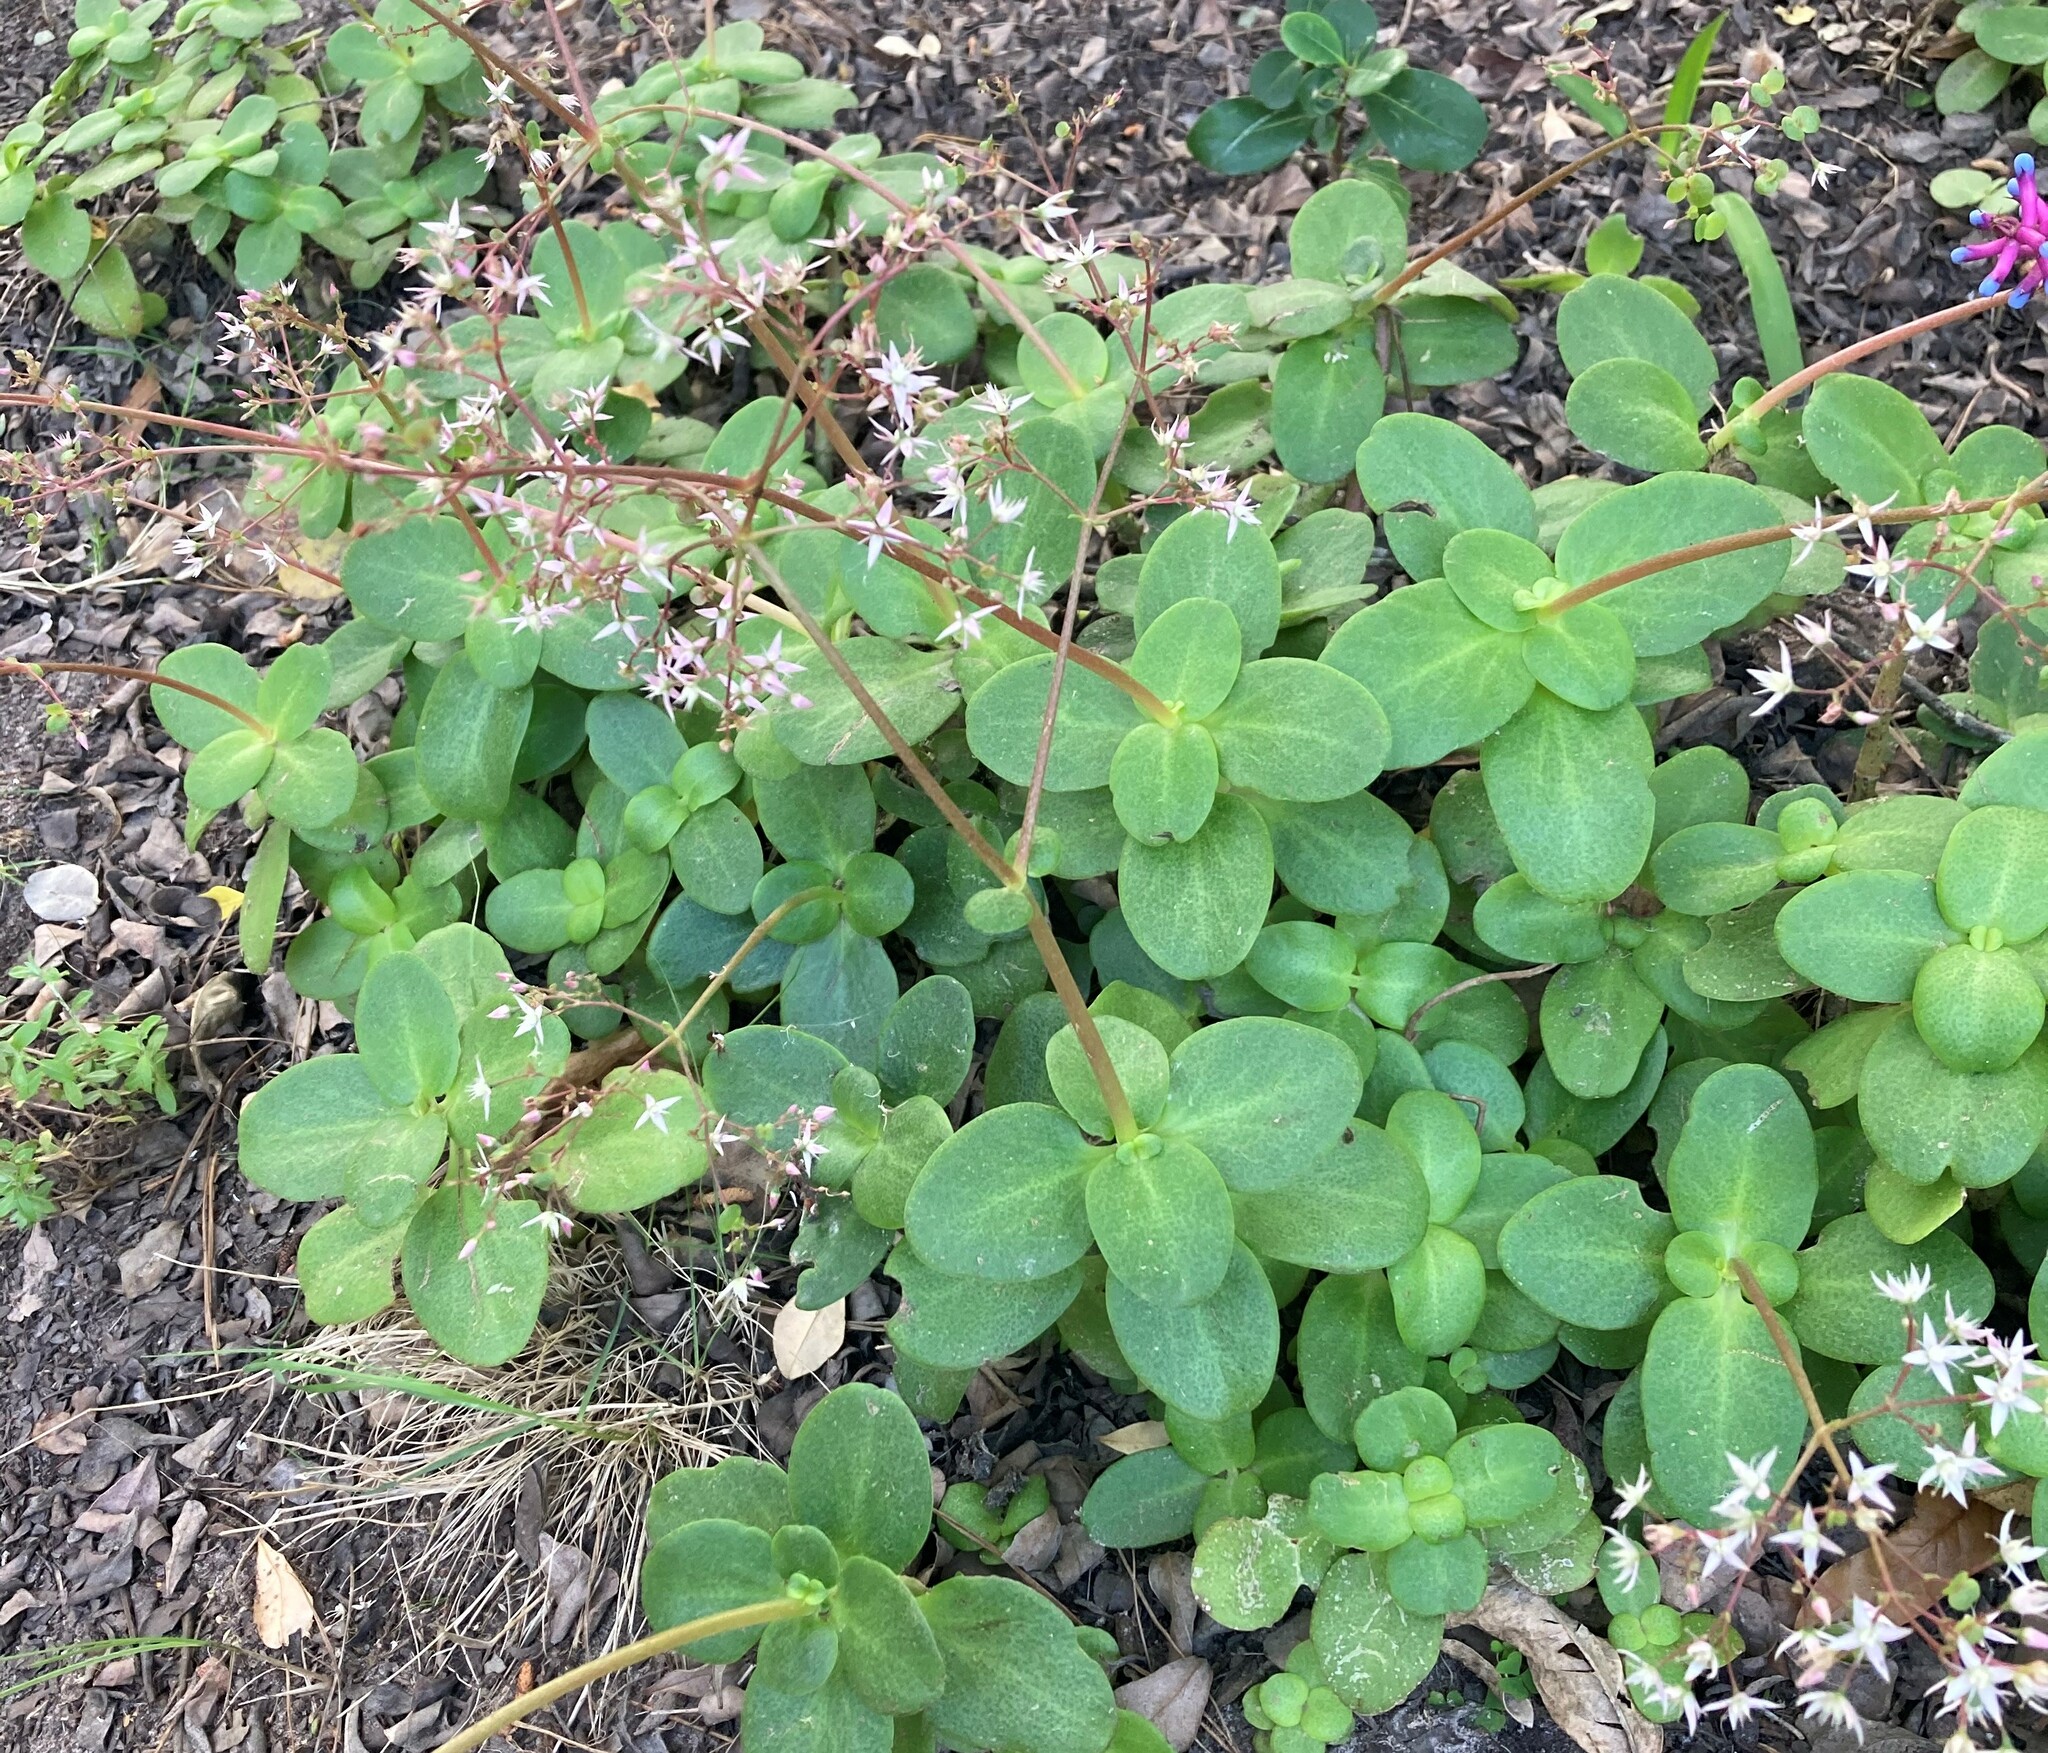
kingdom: Plantae
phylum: Tracheophyta
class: Magnoliopsida
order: Saxifragales
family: Crassulaceae
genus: Crassula
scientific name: Crassula multicava
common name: Cape province pygmyweed
